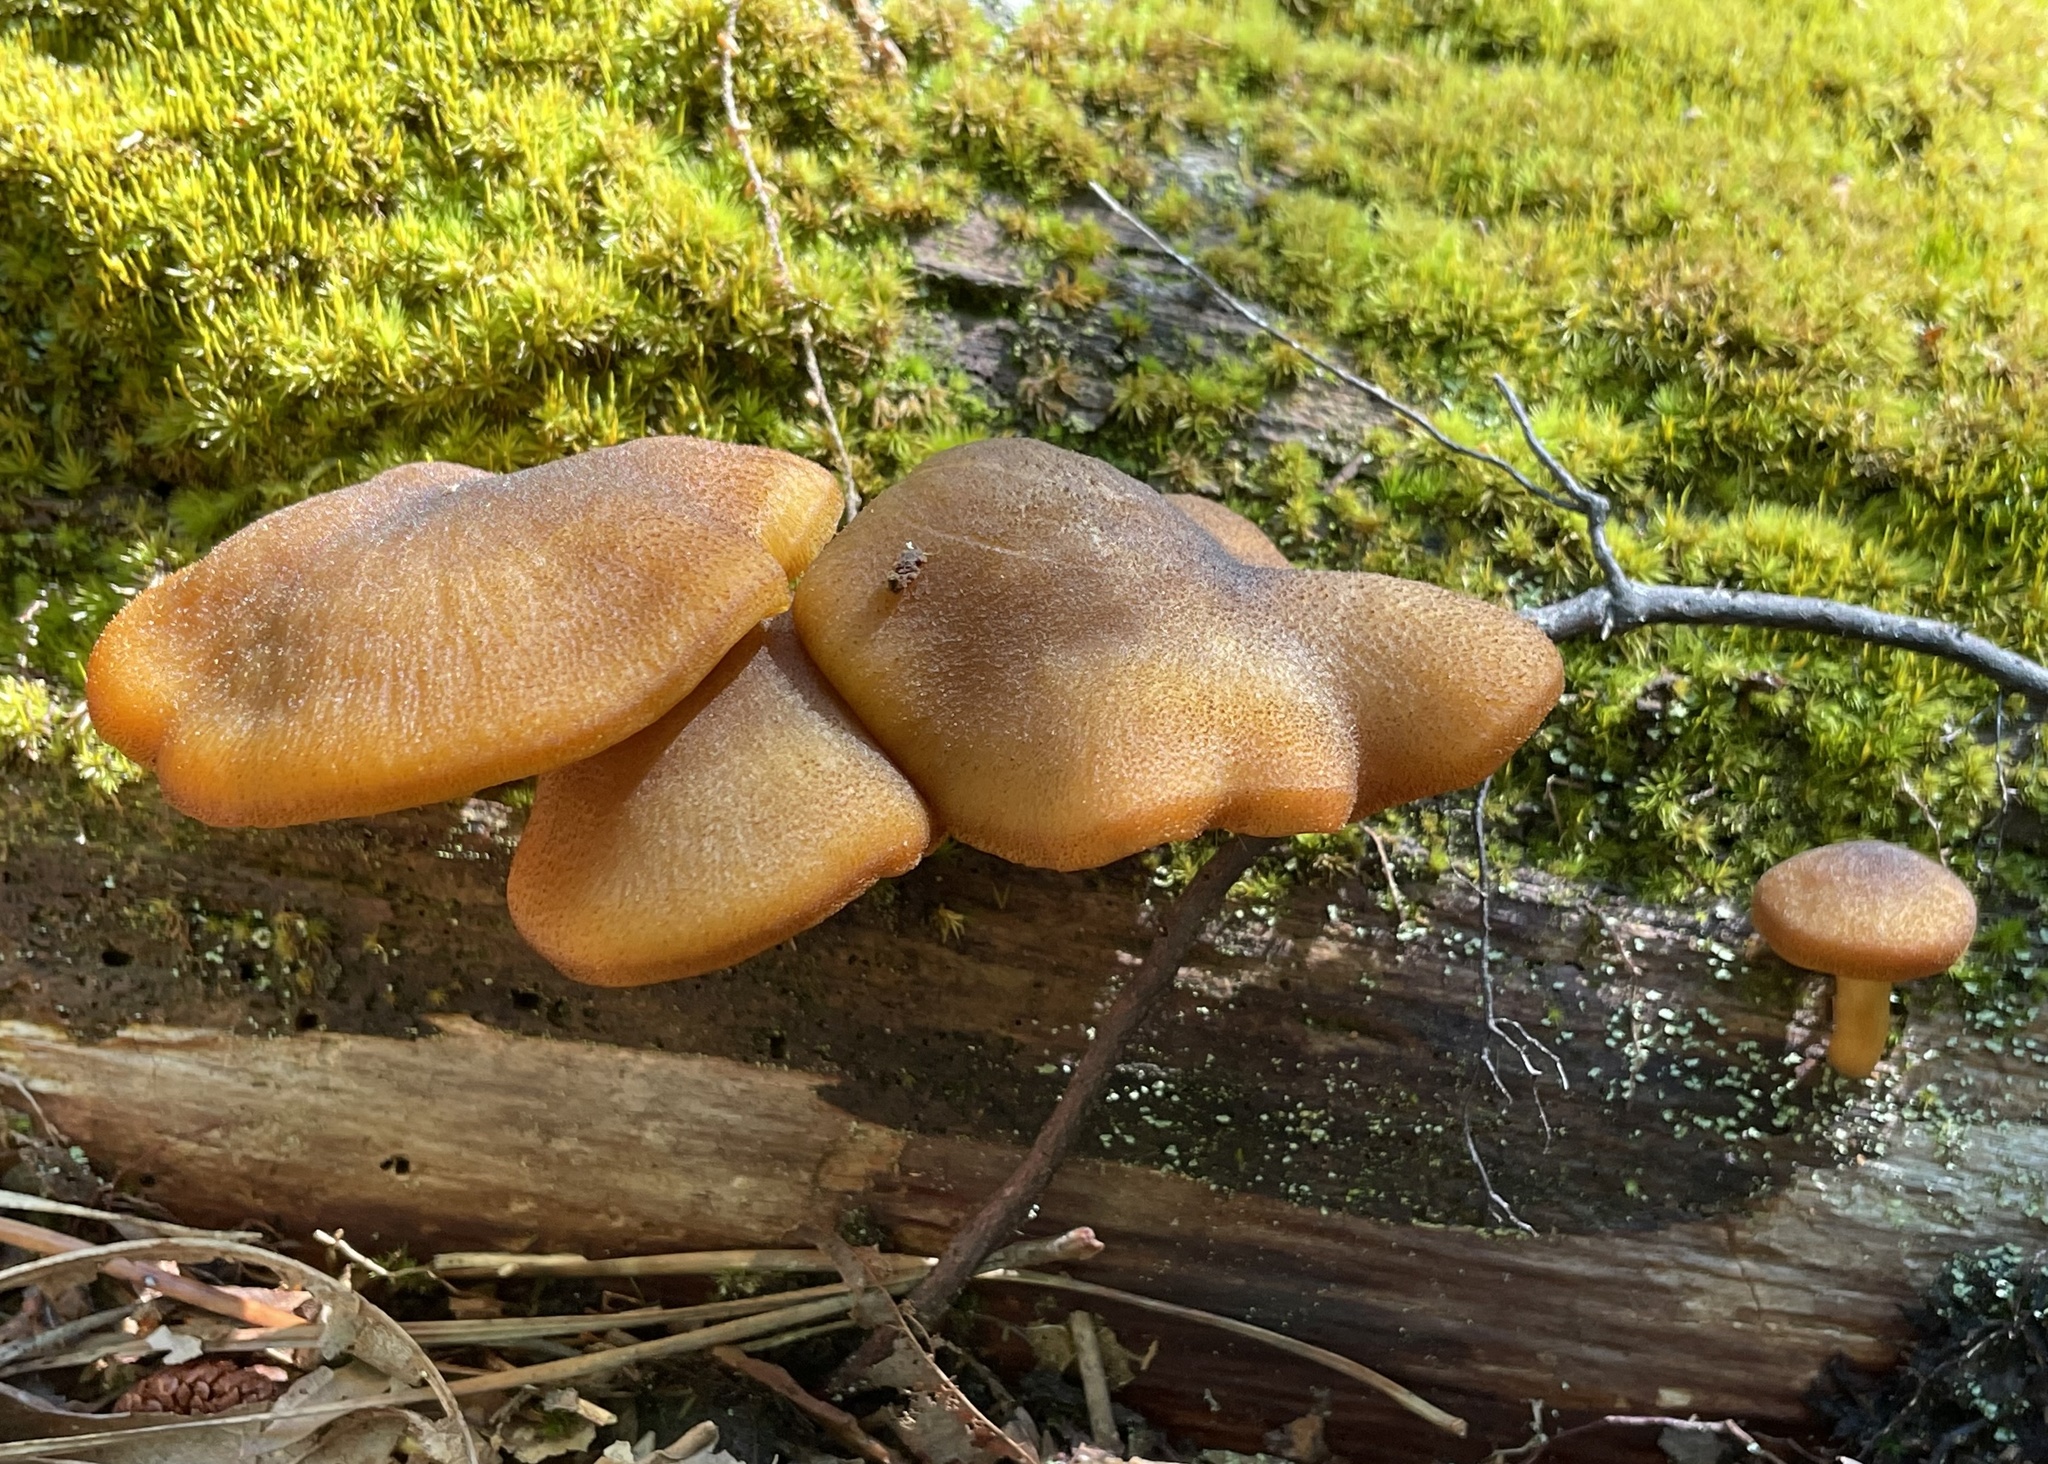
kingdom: Fungi
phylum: Basidiomycota
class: Agaricomycetes
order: Agaricales
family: Tricholomataceae
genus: Tricholomopsis
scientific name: Tricholomopsis decora
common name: Prunes and custard
